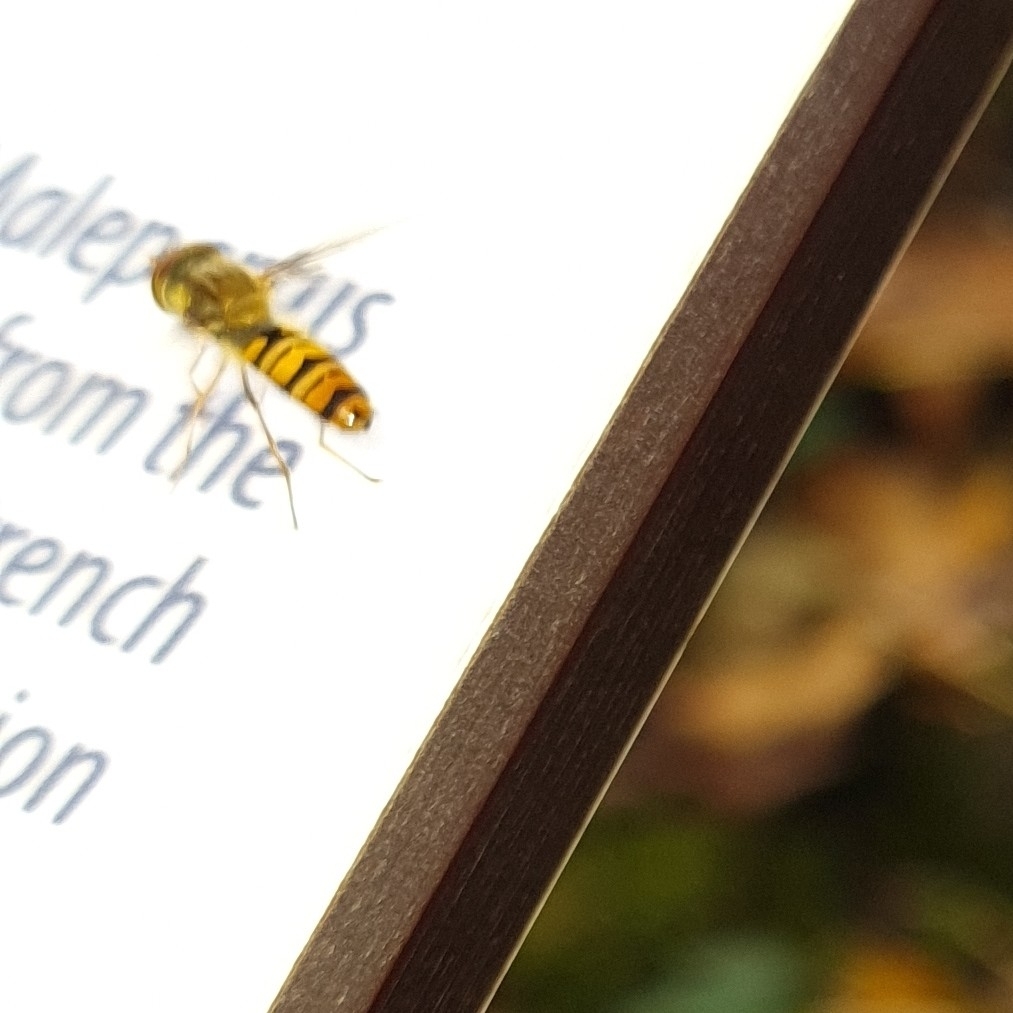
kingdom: Animalia
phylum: Arthropoda
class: Insecta
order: Diptera
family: Syrphidae
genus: Episyrphus
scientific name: Episyrphus balteatus
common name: Marmalade hoverfly
